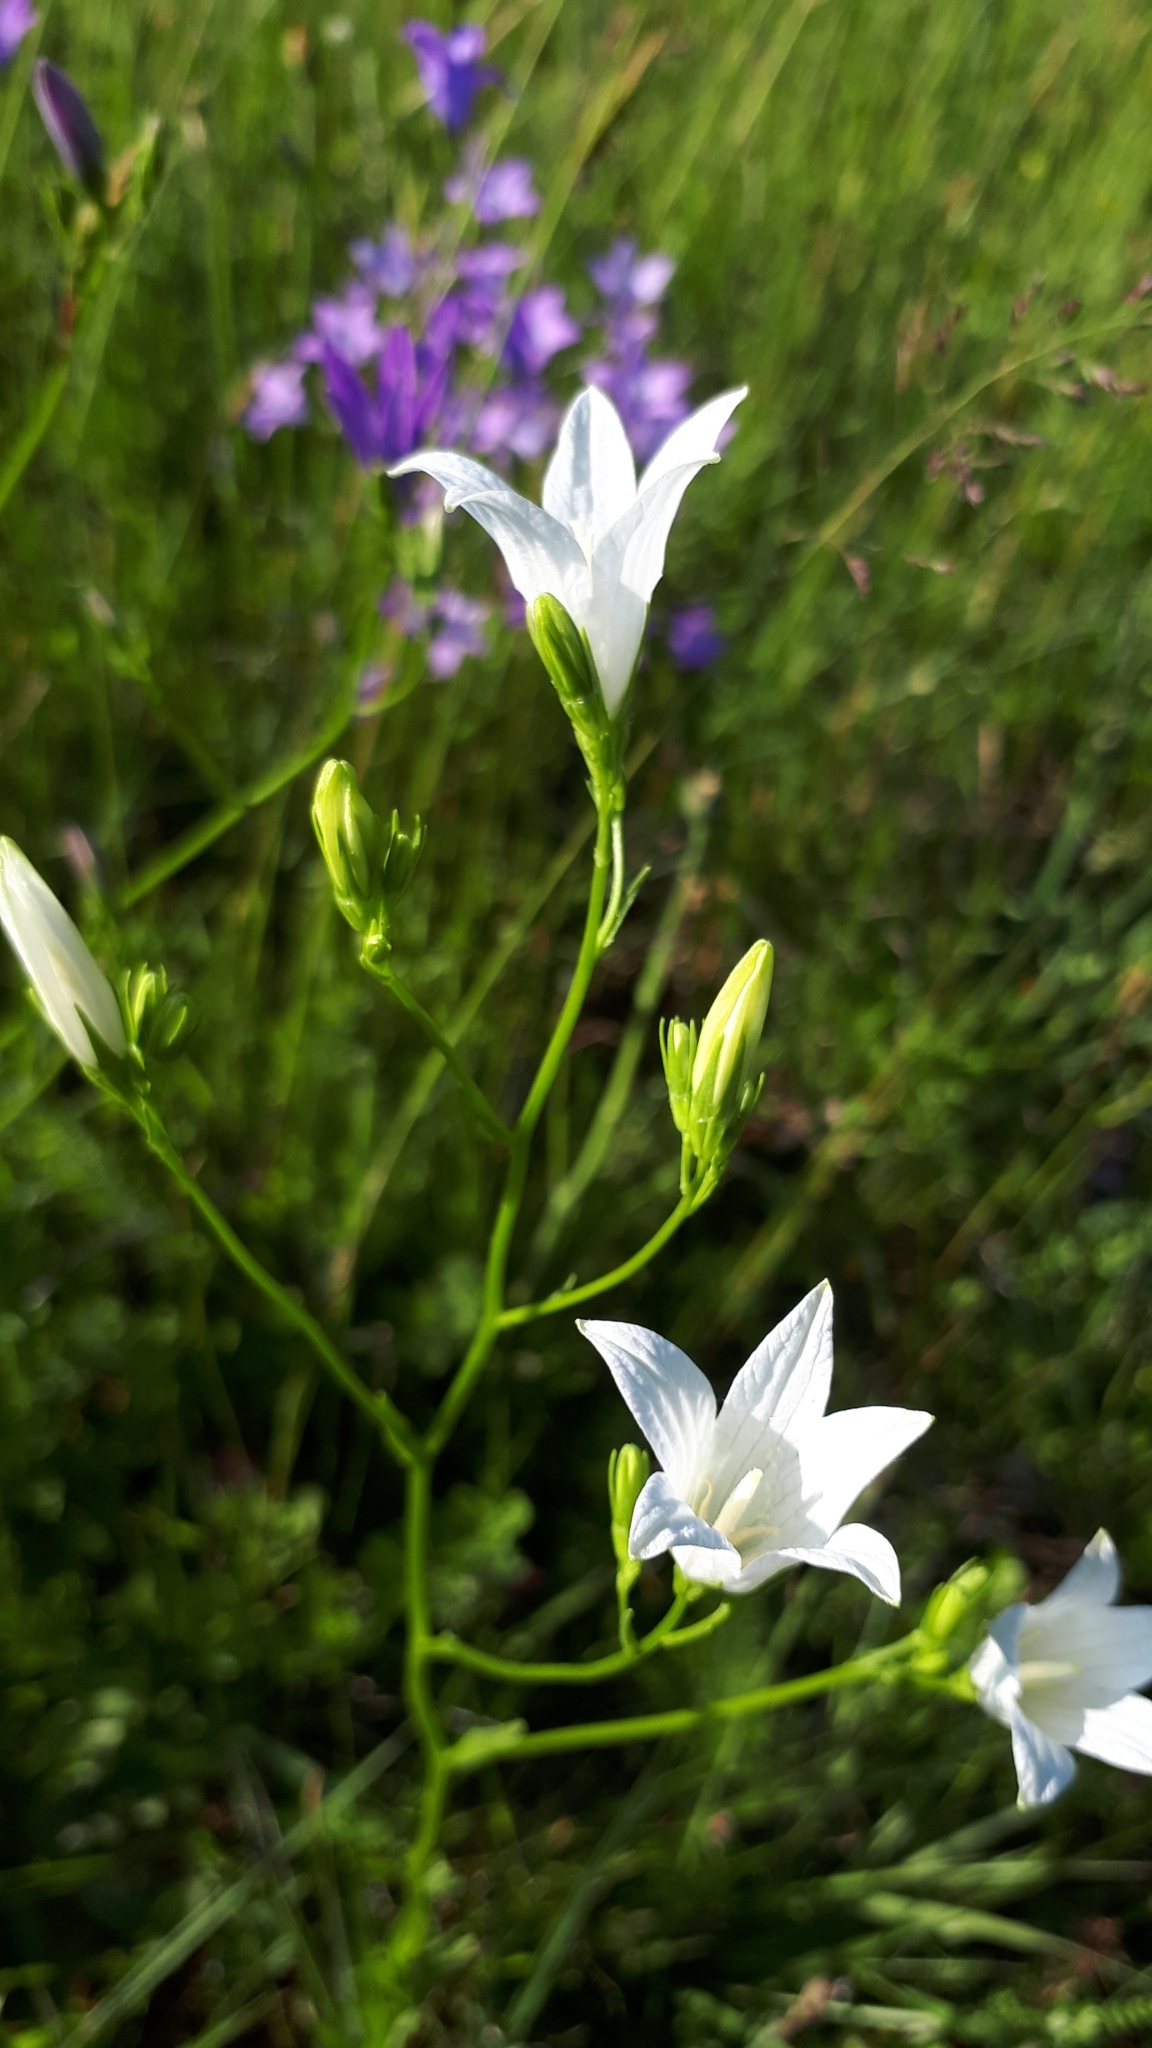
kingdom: Plantae
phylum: Tracheophyta
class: Magnoliopsida
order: Asterales
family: Campanulaceae
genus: Campanula
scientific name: Campanula patula
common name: Spreading bellflower
